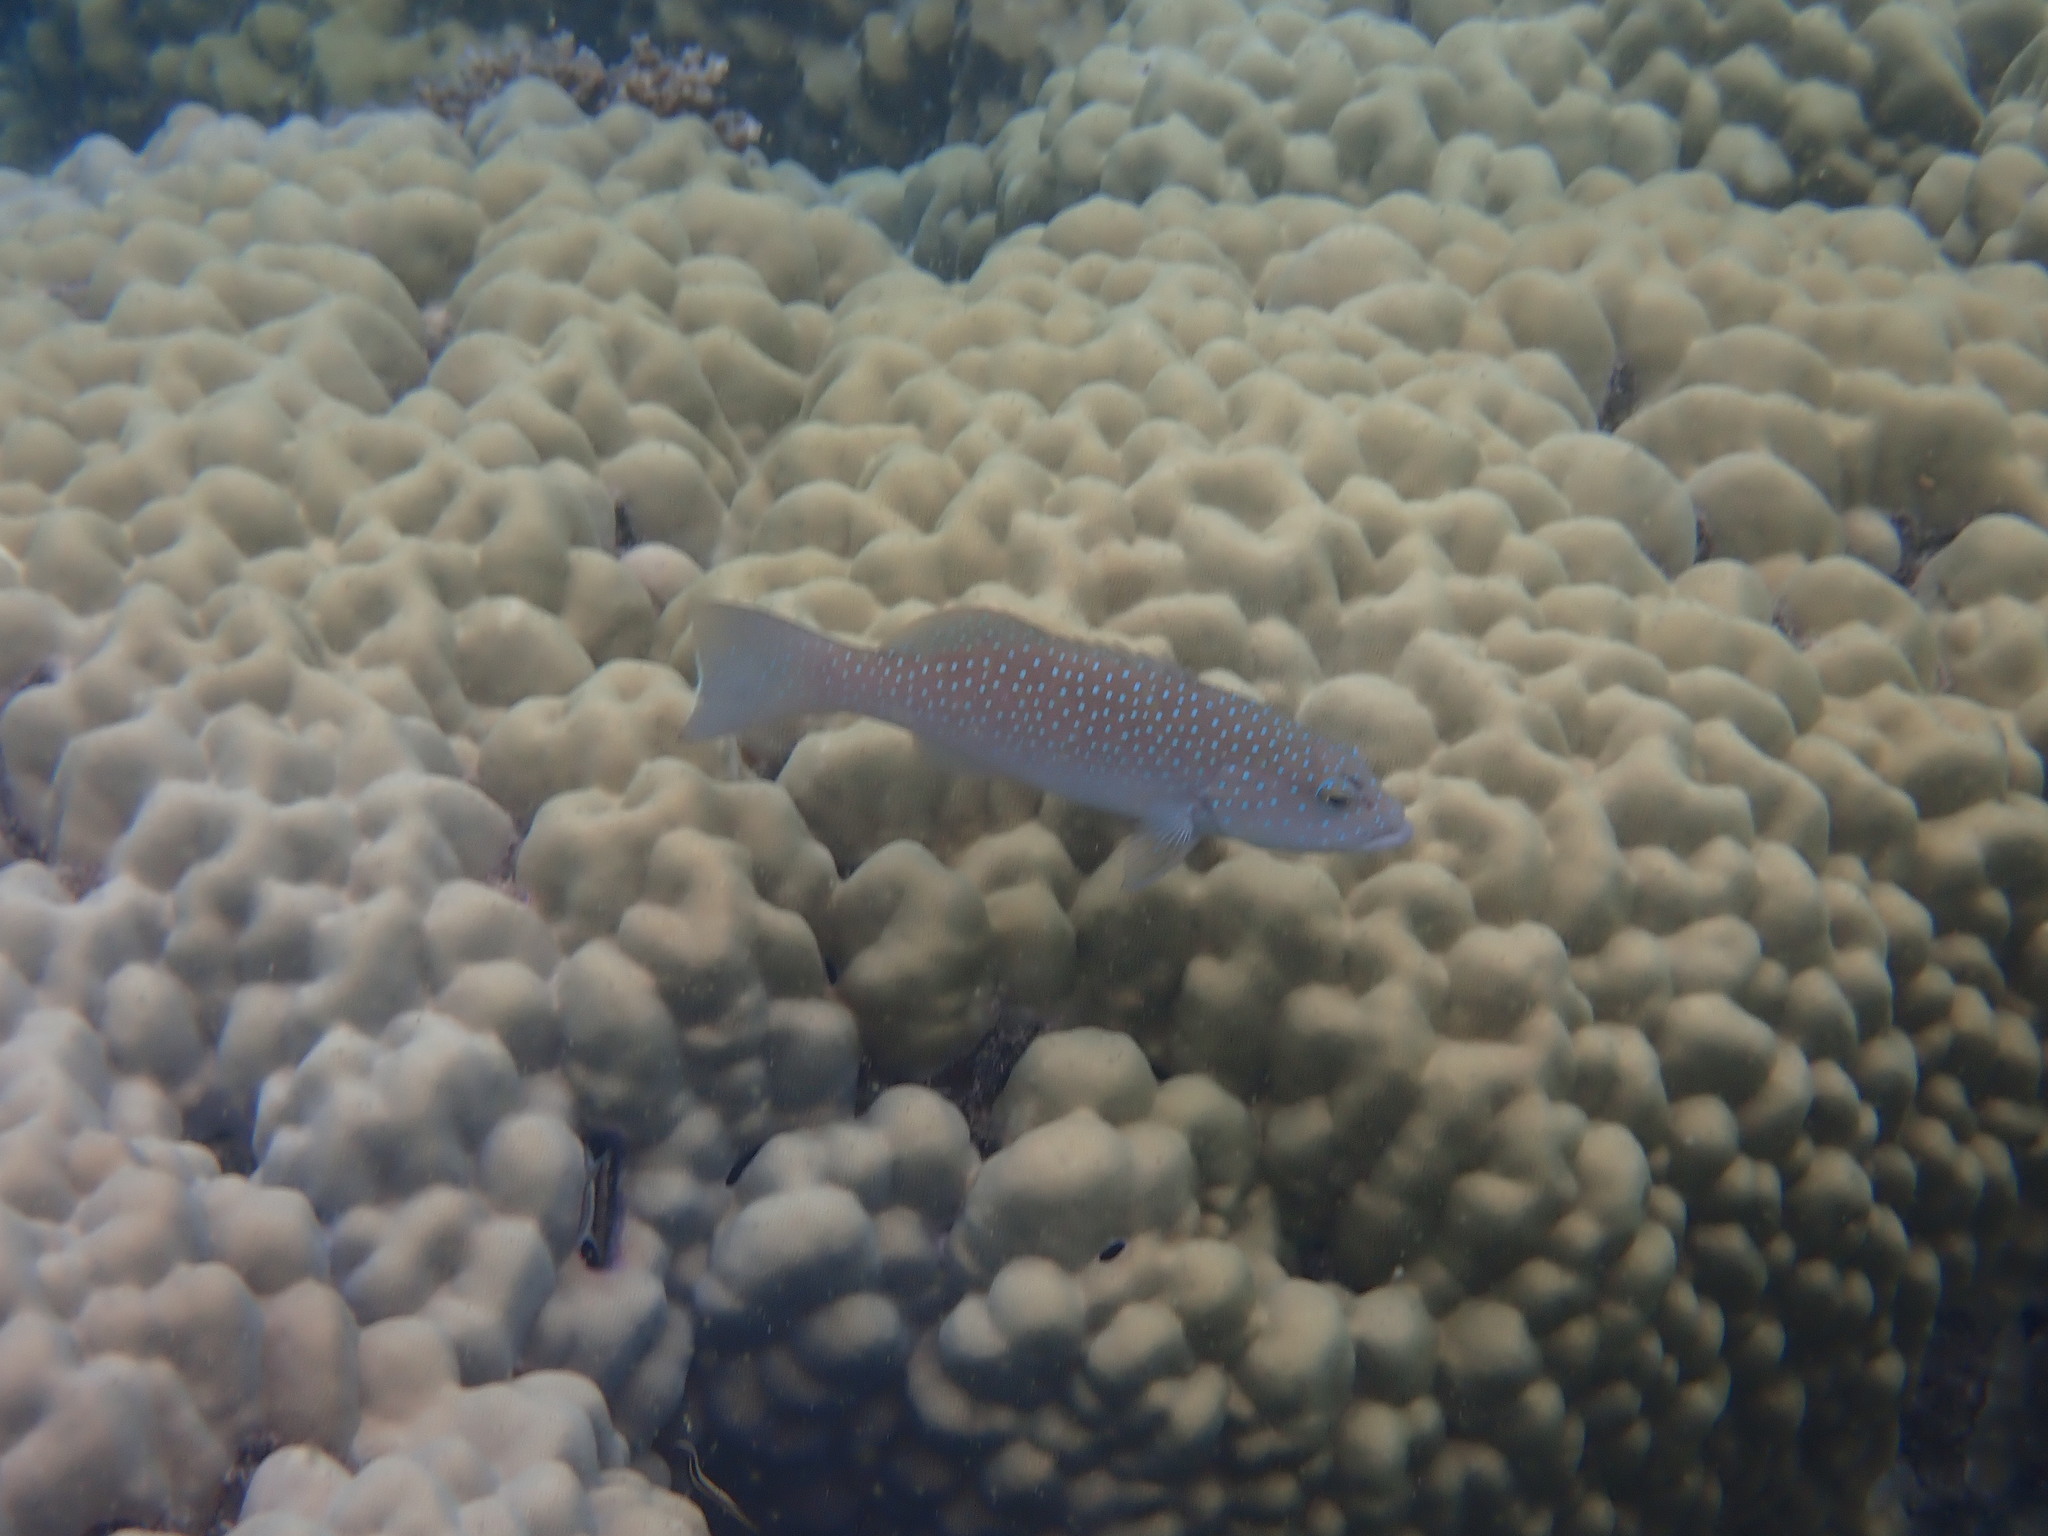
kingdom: Animalia
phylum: Chordata
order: Perciformes
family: Serranidae
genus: Plectropomus
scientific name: Plectropomus leopardus
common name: Coral trout
